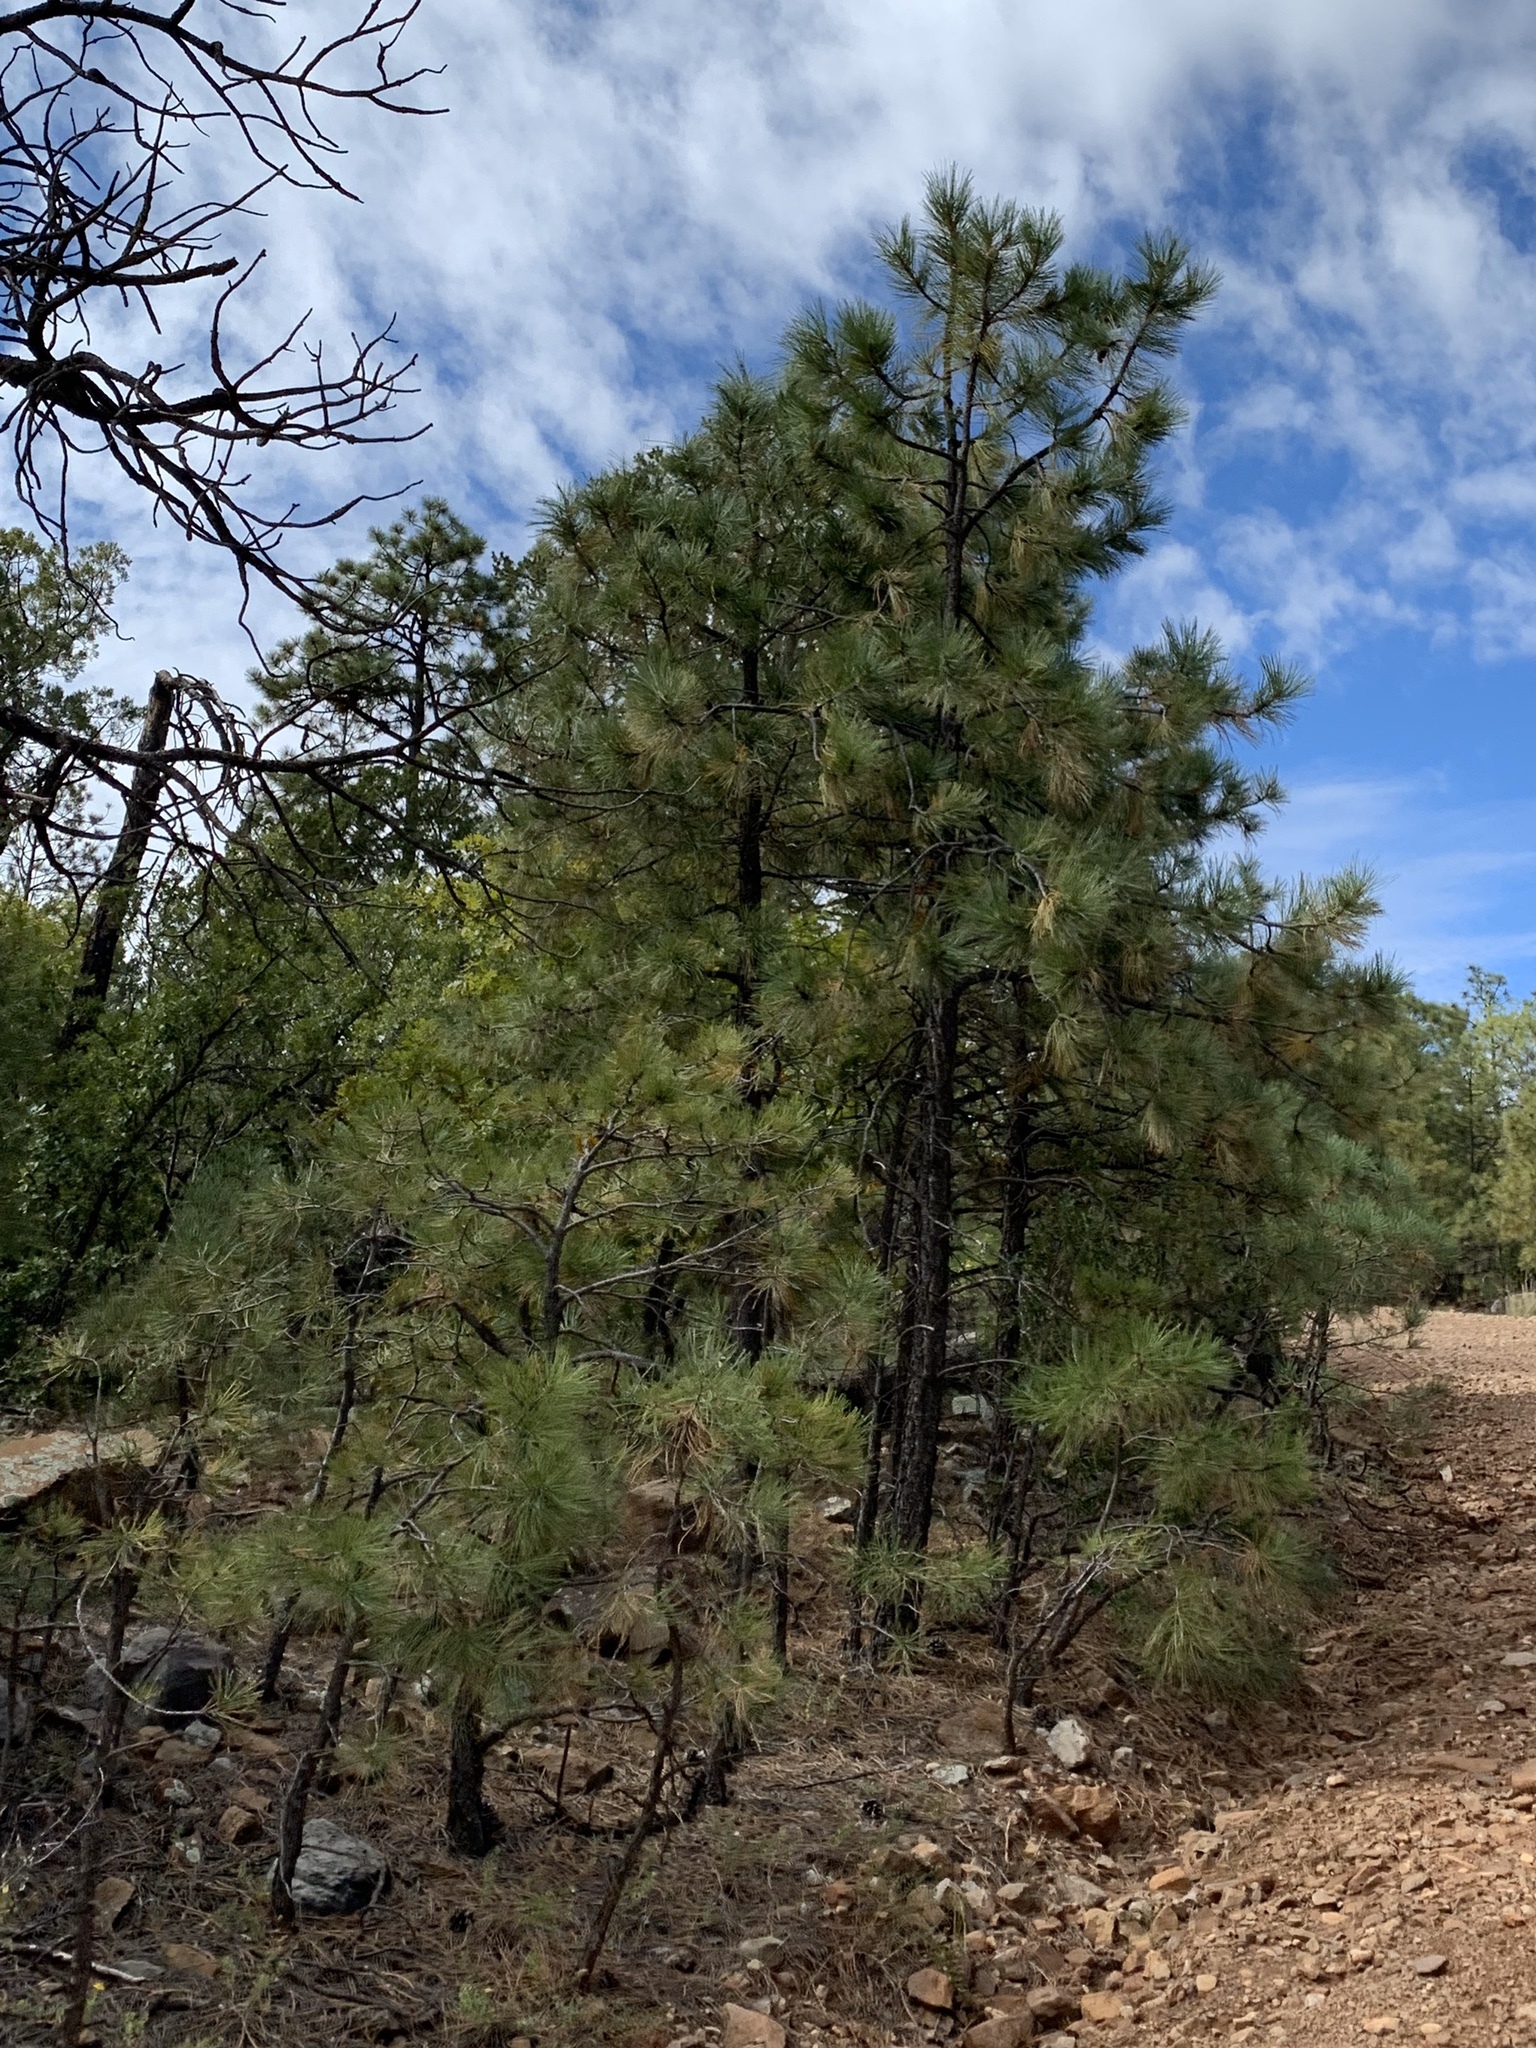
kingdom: Plantae
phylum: Tracheophyta
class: Pinopsida
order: Pinales
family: Pinaceae
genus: Pinus
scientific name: Pinus ponderosa
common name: Western yellow-pine
